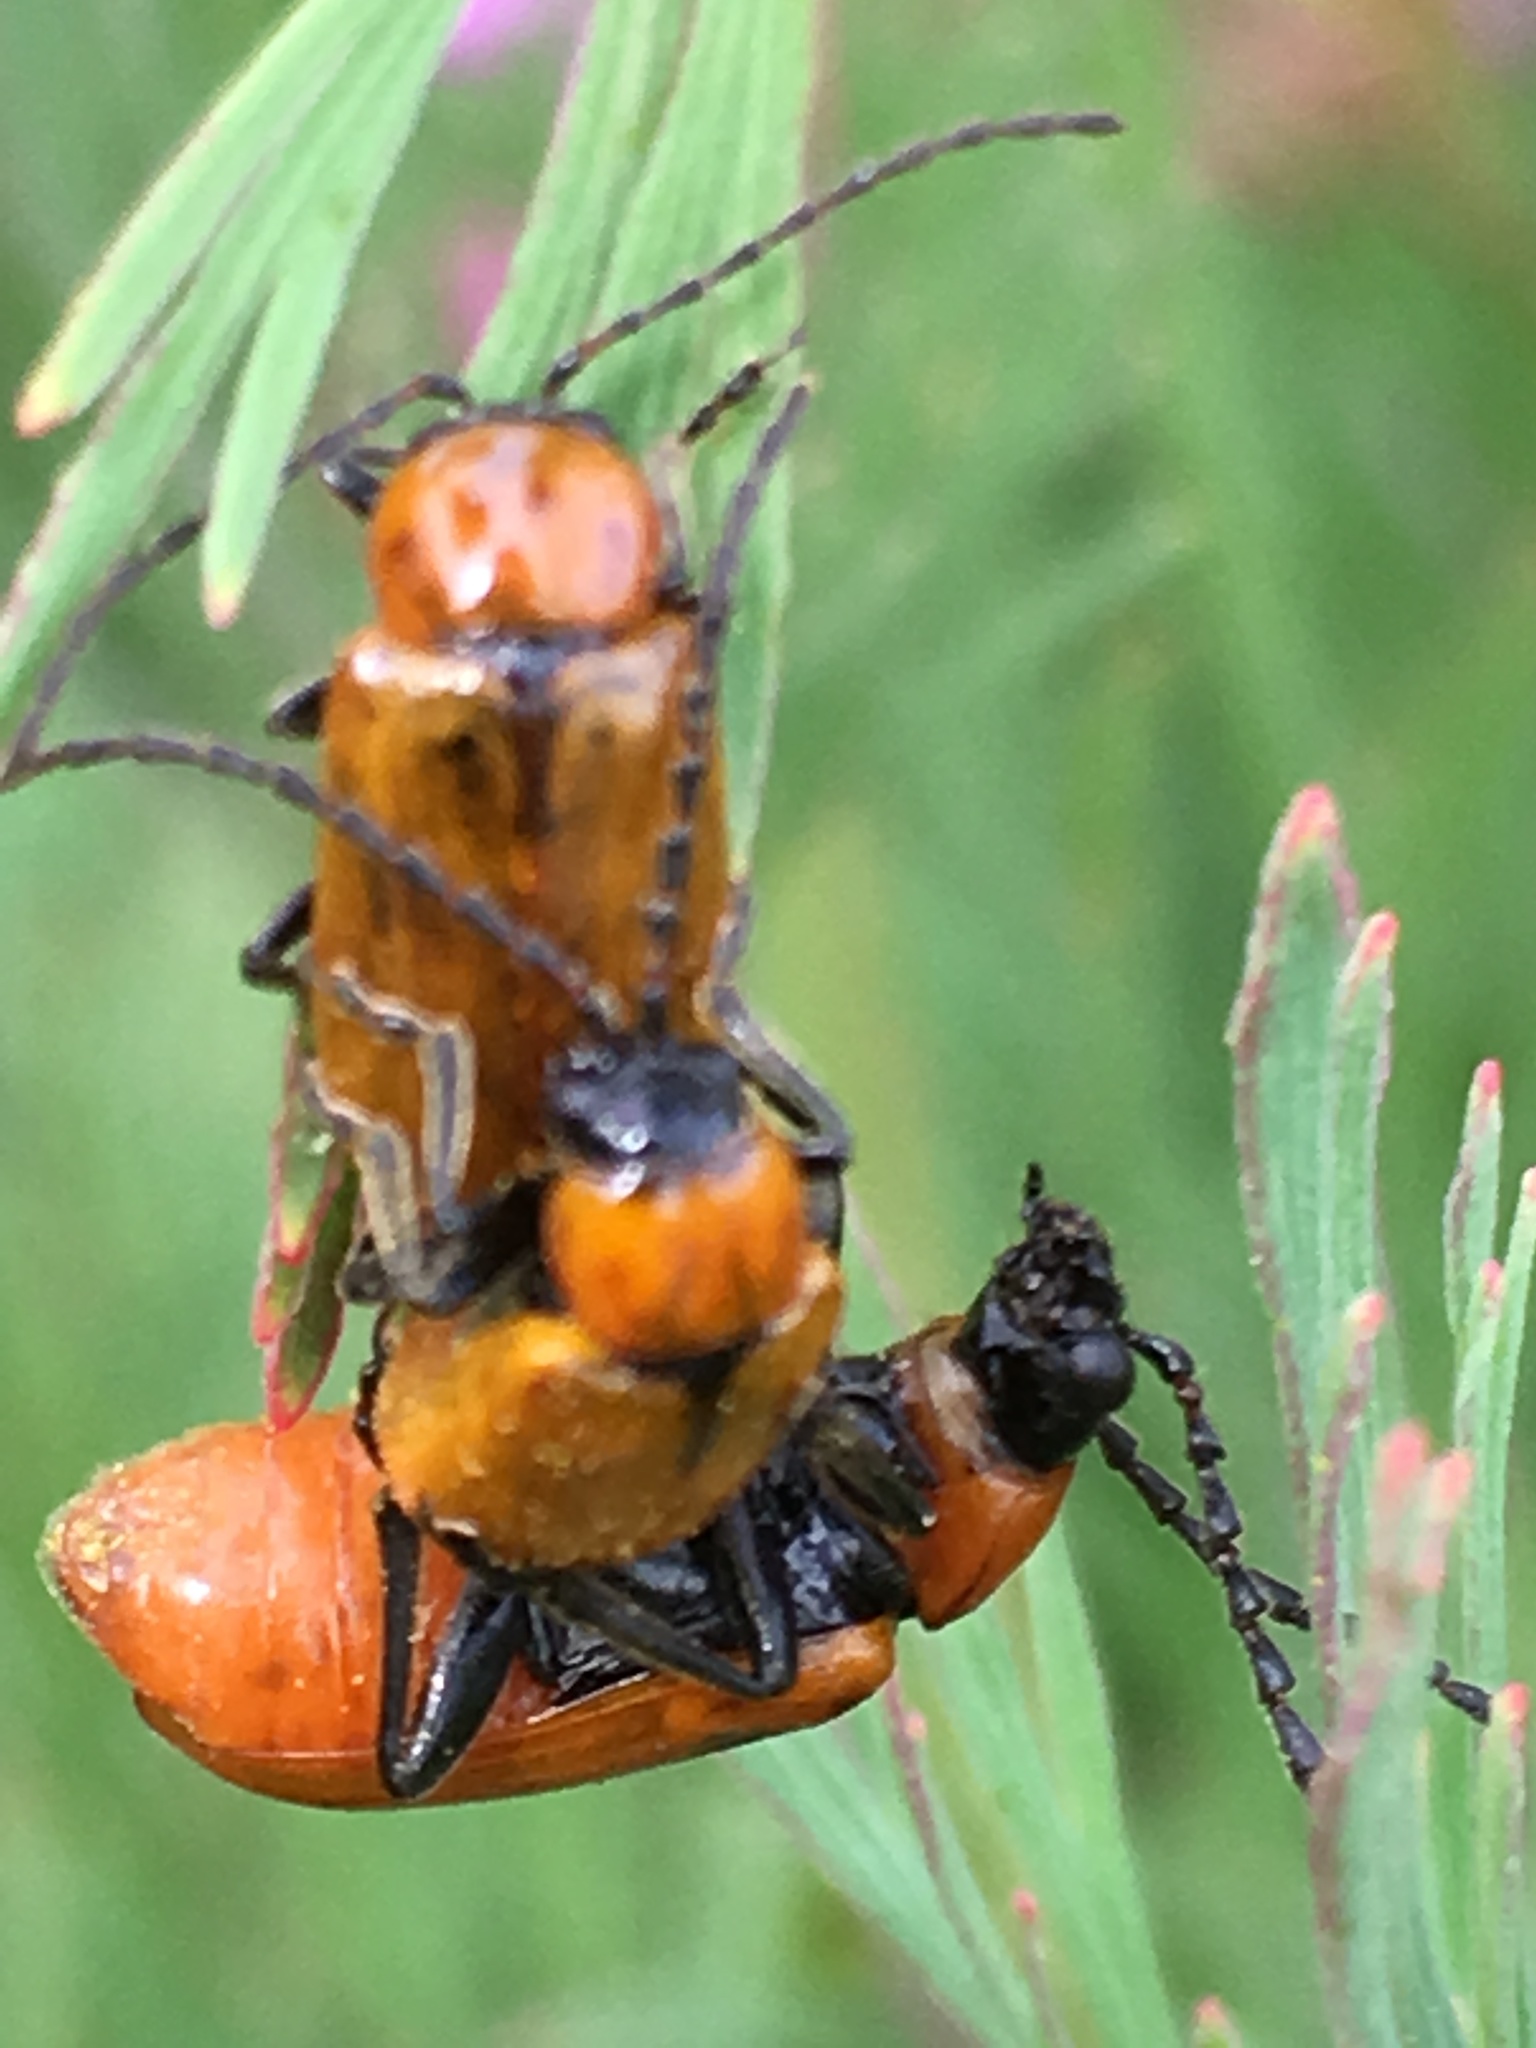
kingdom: Animalia
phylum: Arthropoda
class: Insecta
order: Coleoptera
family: Chrysomelidae
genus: Exosoma
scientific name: Exosoma lusitanicum
